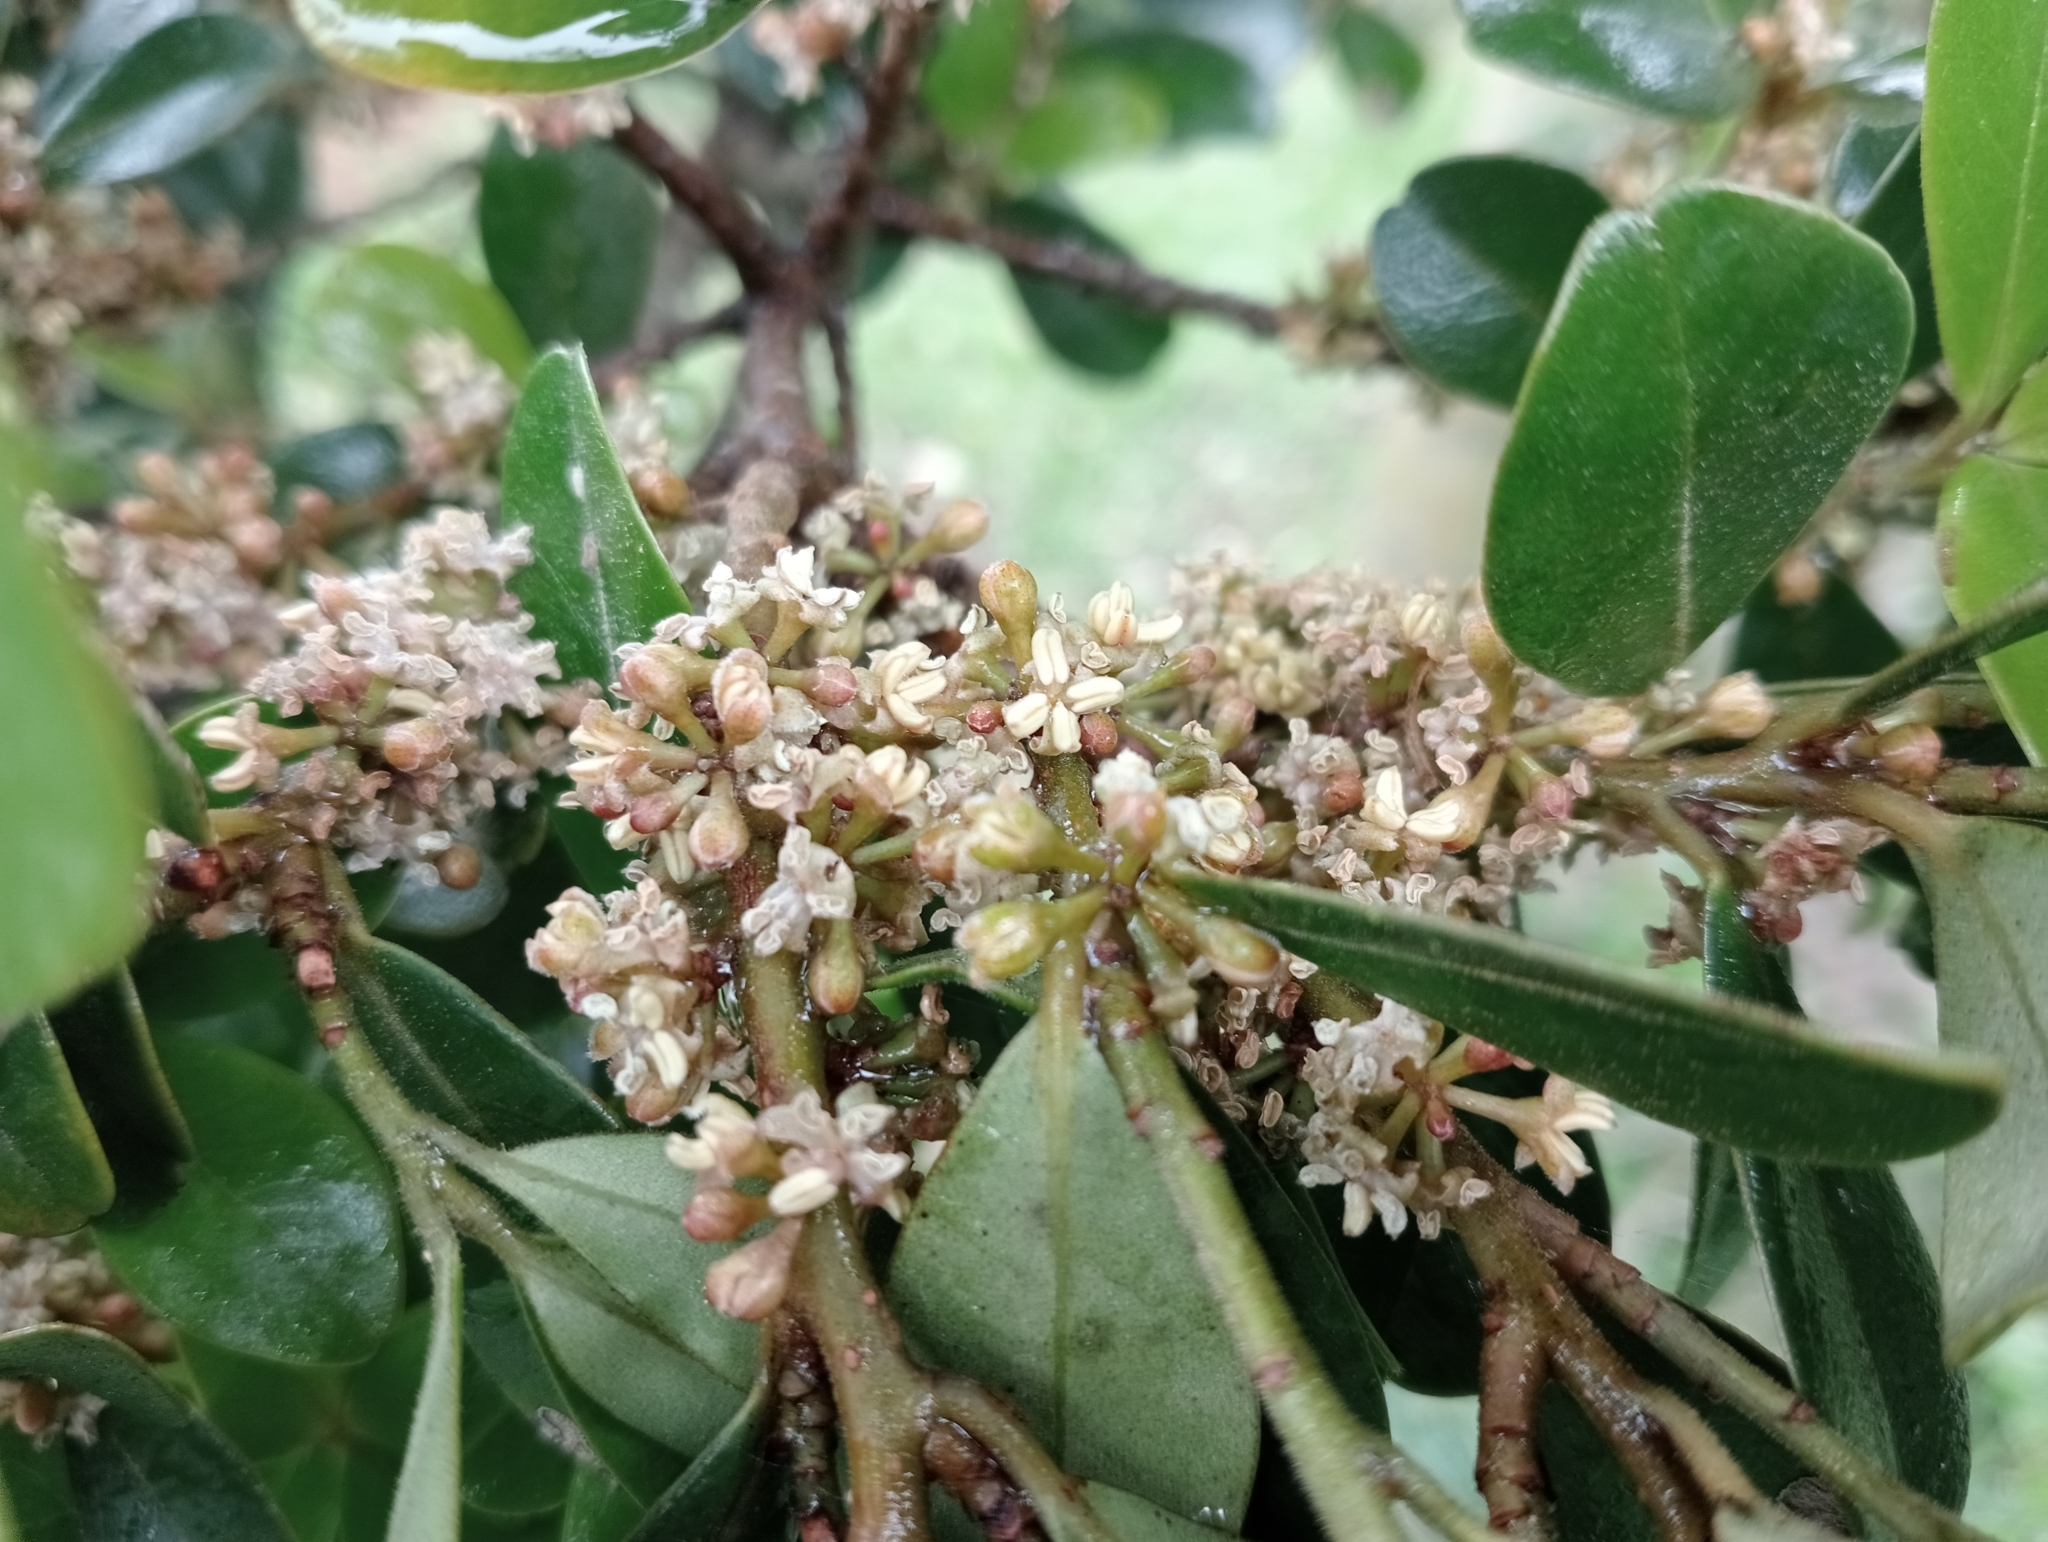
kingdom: Plantae
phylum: Tracheophyta
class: Magnoliopsida
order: Ericales
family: Primulaceae
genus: Myrsine
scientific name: Myrsine chathamica
